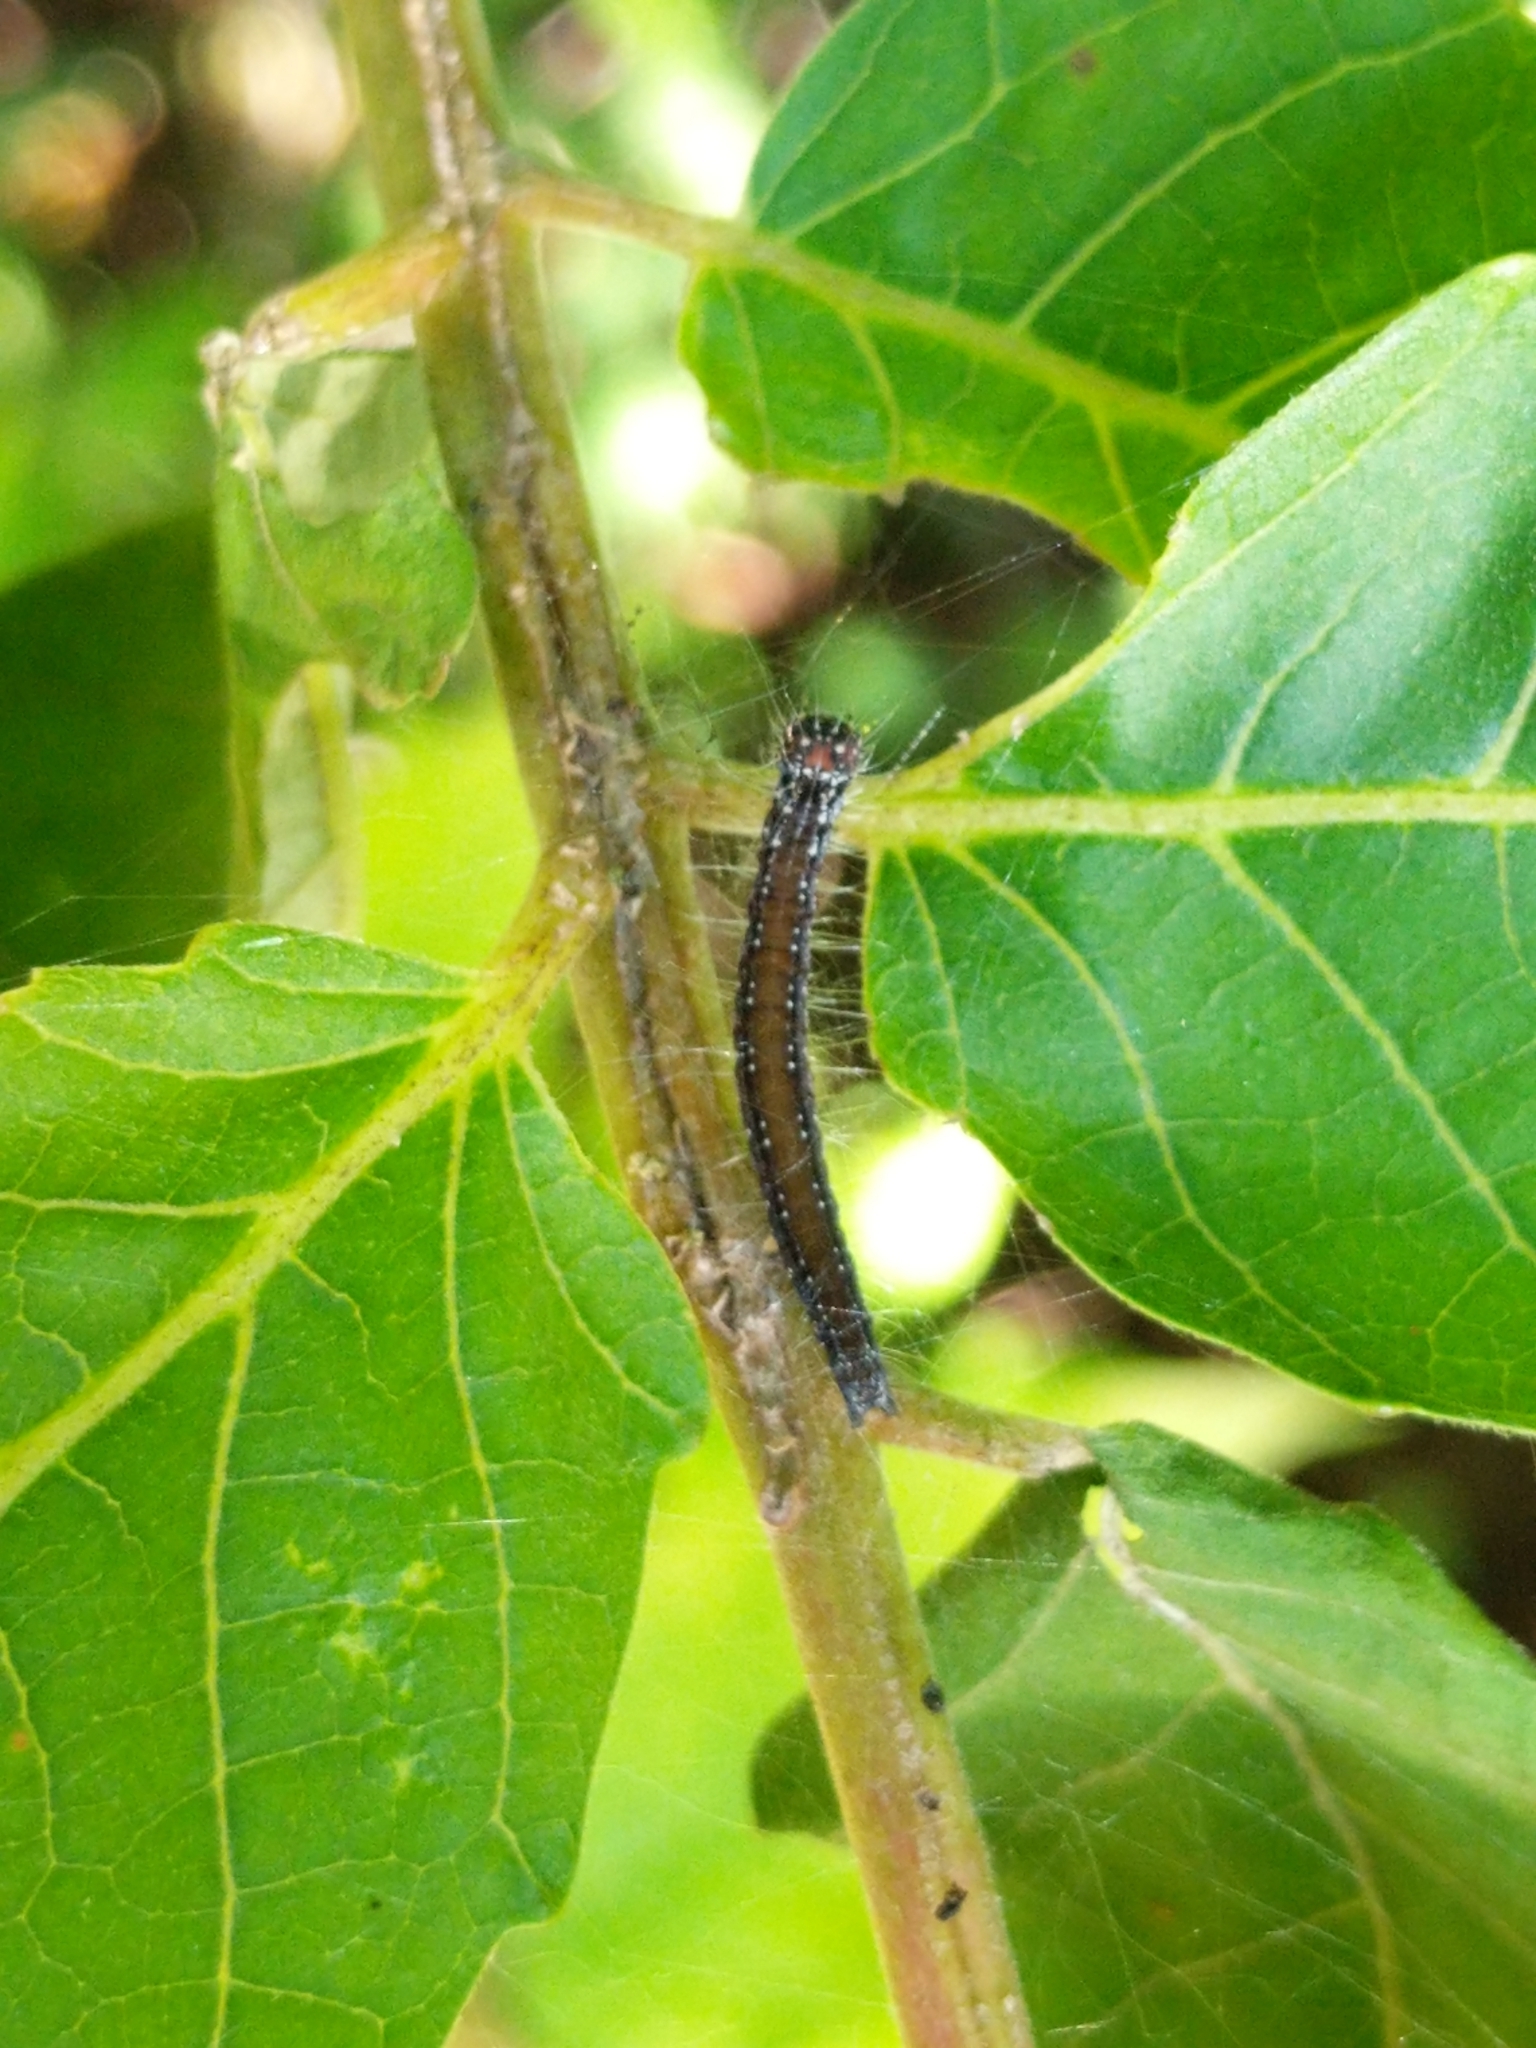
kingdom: Animalia
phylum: Arthropoda
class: Insecta
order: Lepidoptera
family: Attevidae
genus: Atteva
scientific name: Atteva punctella
